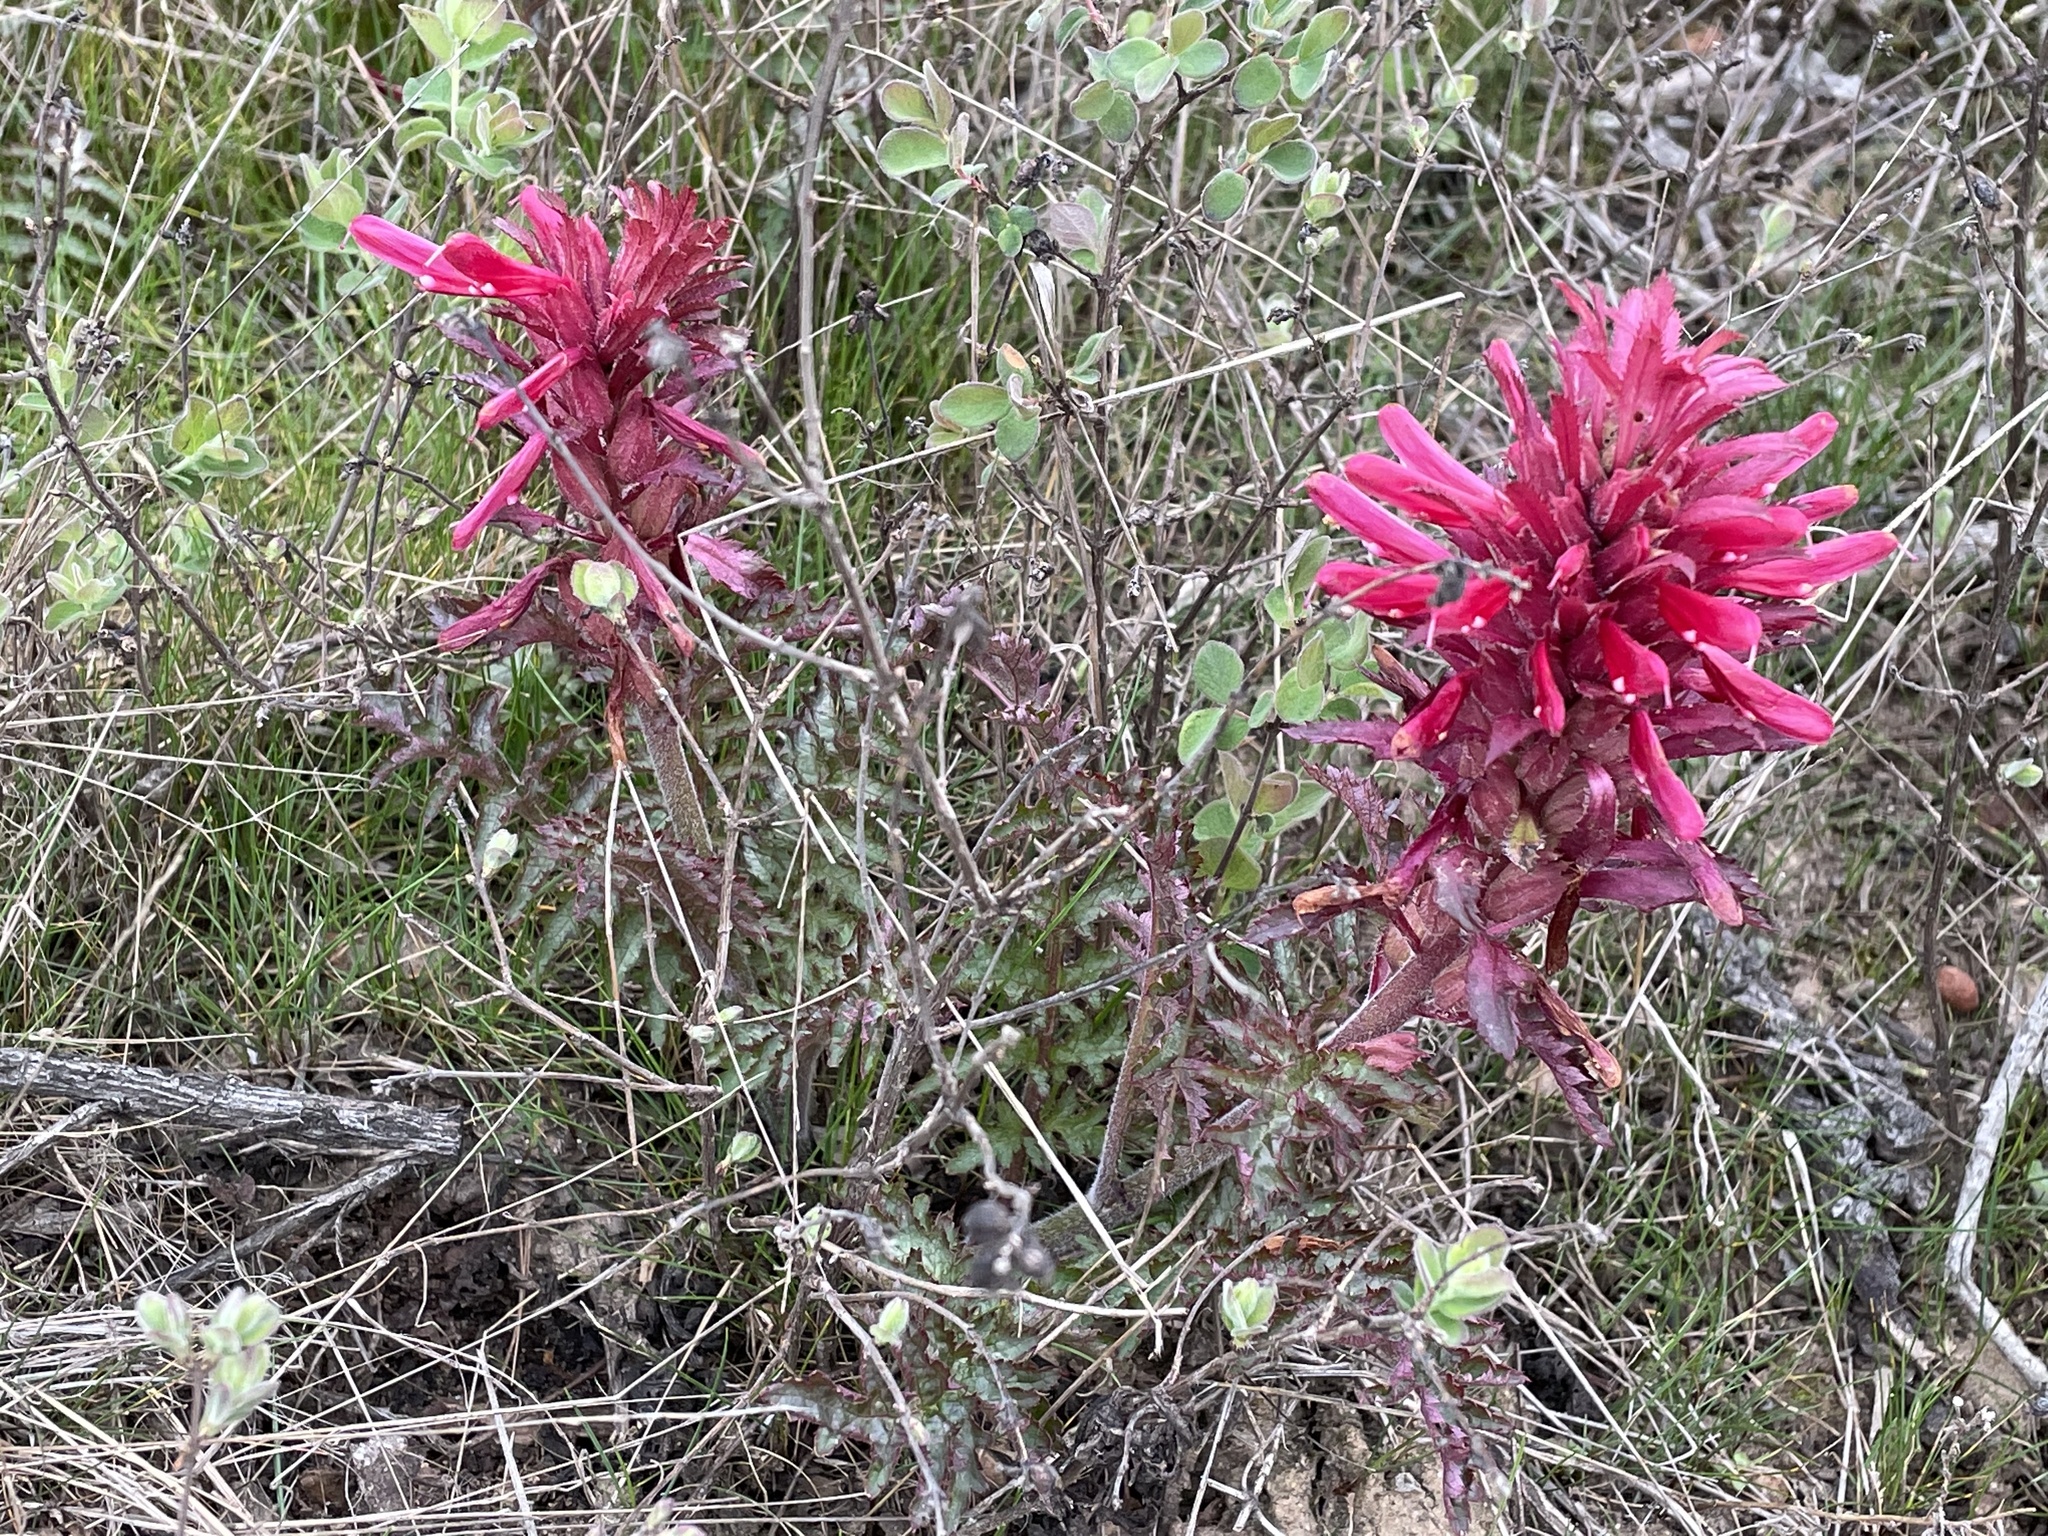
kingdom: Plantae
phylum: Tracheophyta
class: Magnoliopsida
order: Lamiales
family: Orobanchaceae
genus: Pedicularis
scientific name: Pedicularis densiflora
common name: Indian warrior
